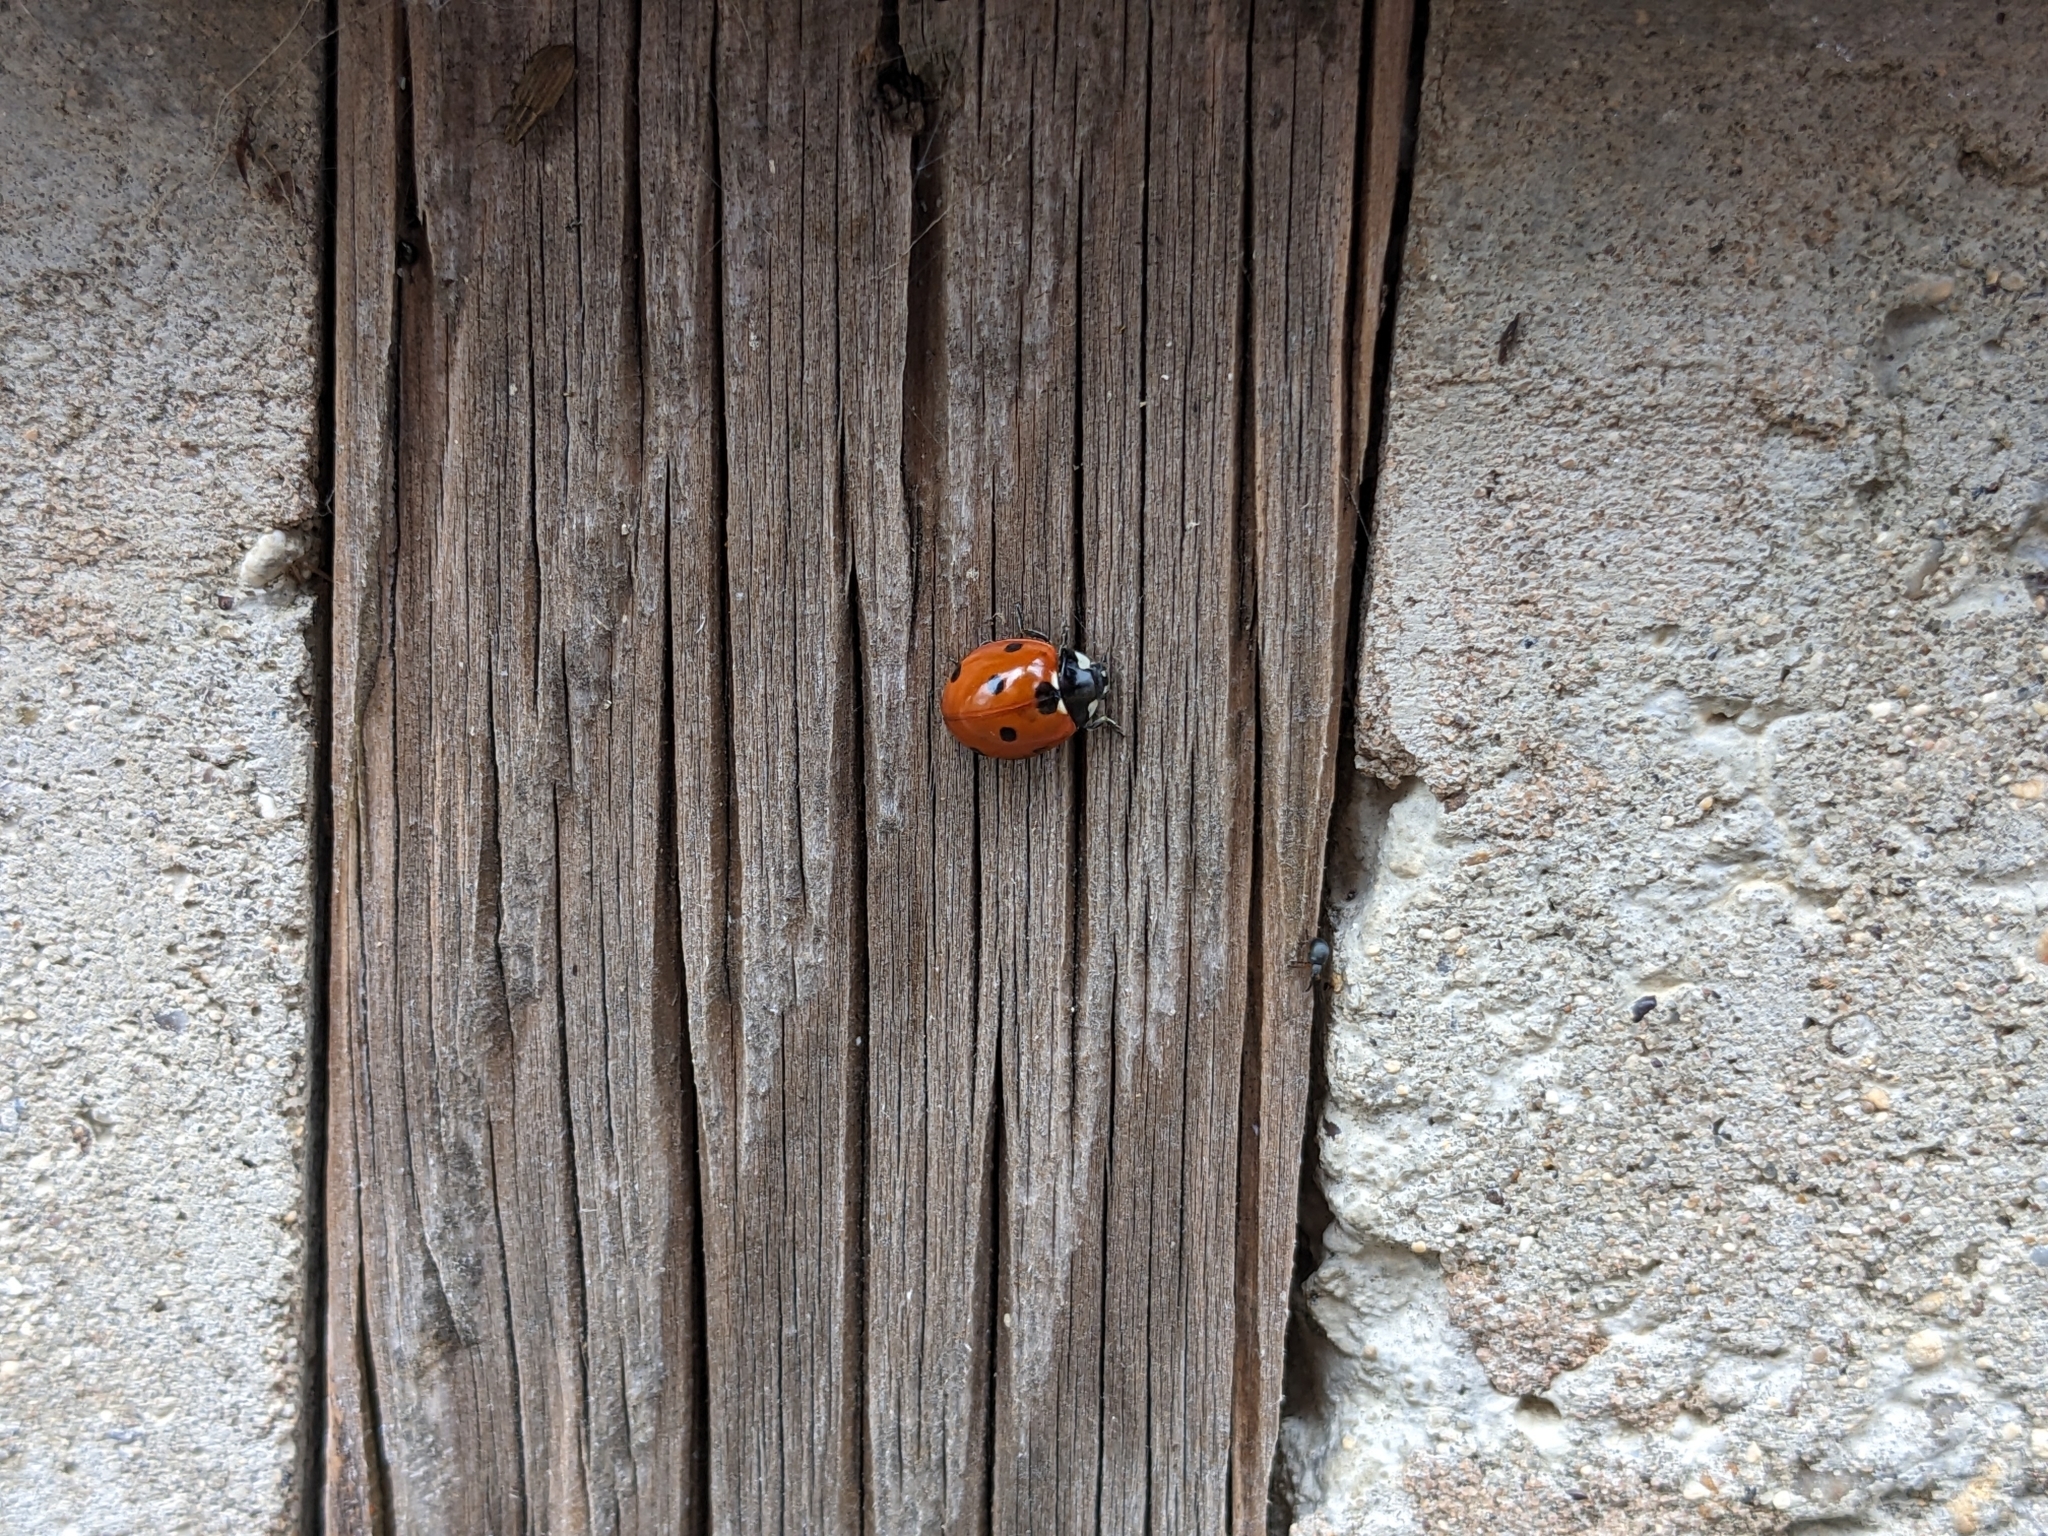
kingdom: Animalia
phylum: Arthropoda
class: Insecta
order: Coleoptera
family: Coccinellidae
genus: Coccinella
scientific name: Coccinella septempunctata
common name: Sevenspotted lady beetle
